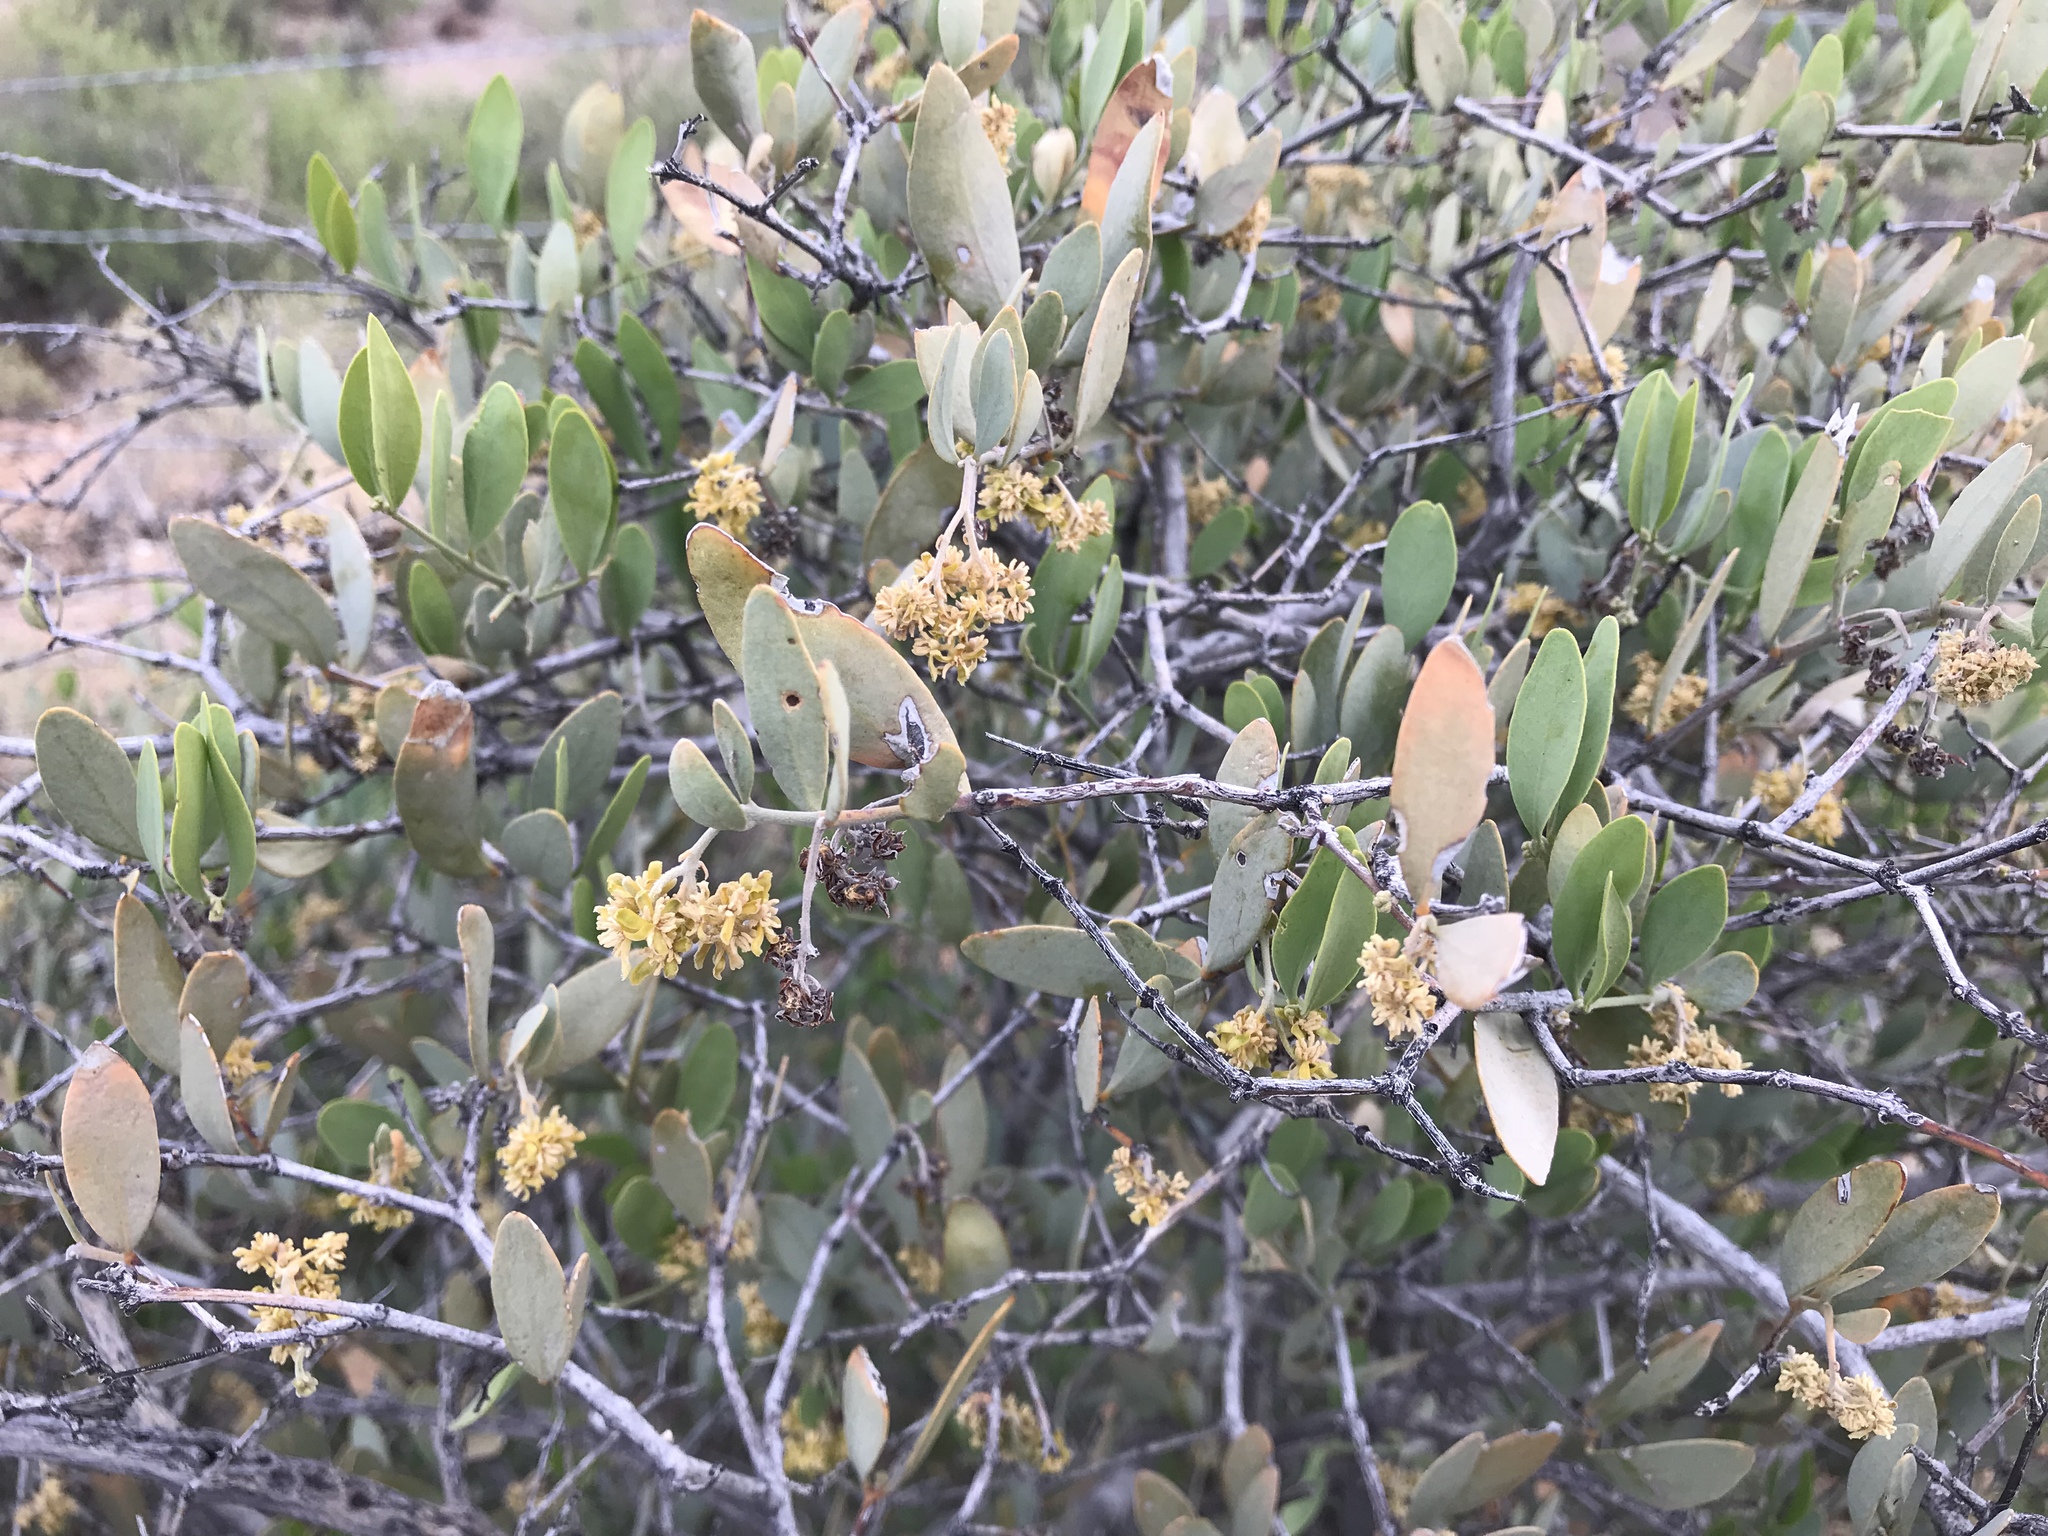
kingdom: Plantae
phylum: Tracheophyta
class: Magnoliopsida
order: Caryophyllales
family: Simmondsiaceae
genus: Simmondsia
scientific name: Simmondsia chinensis
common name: Jojoba
